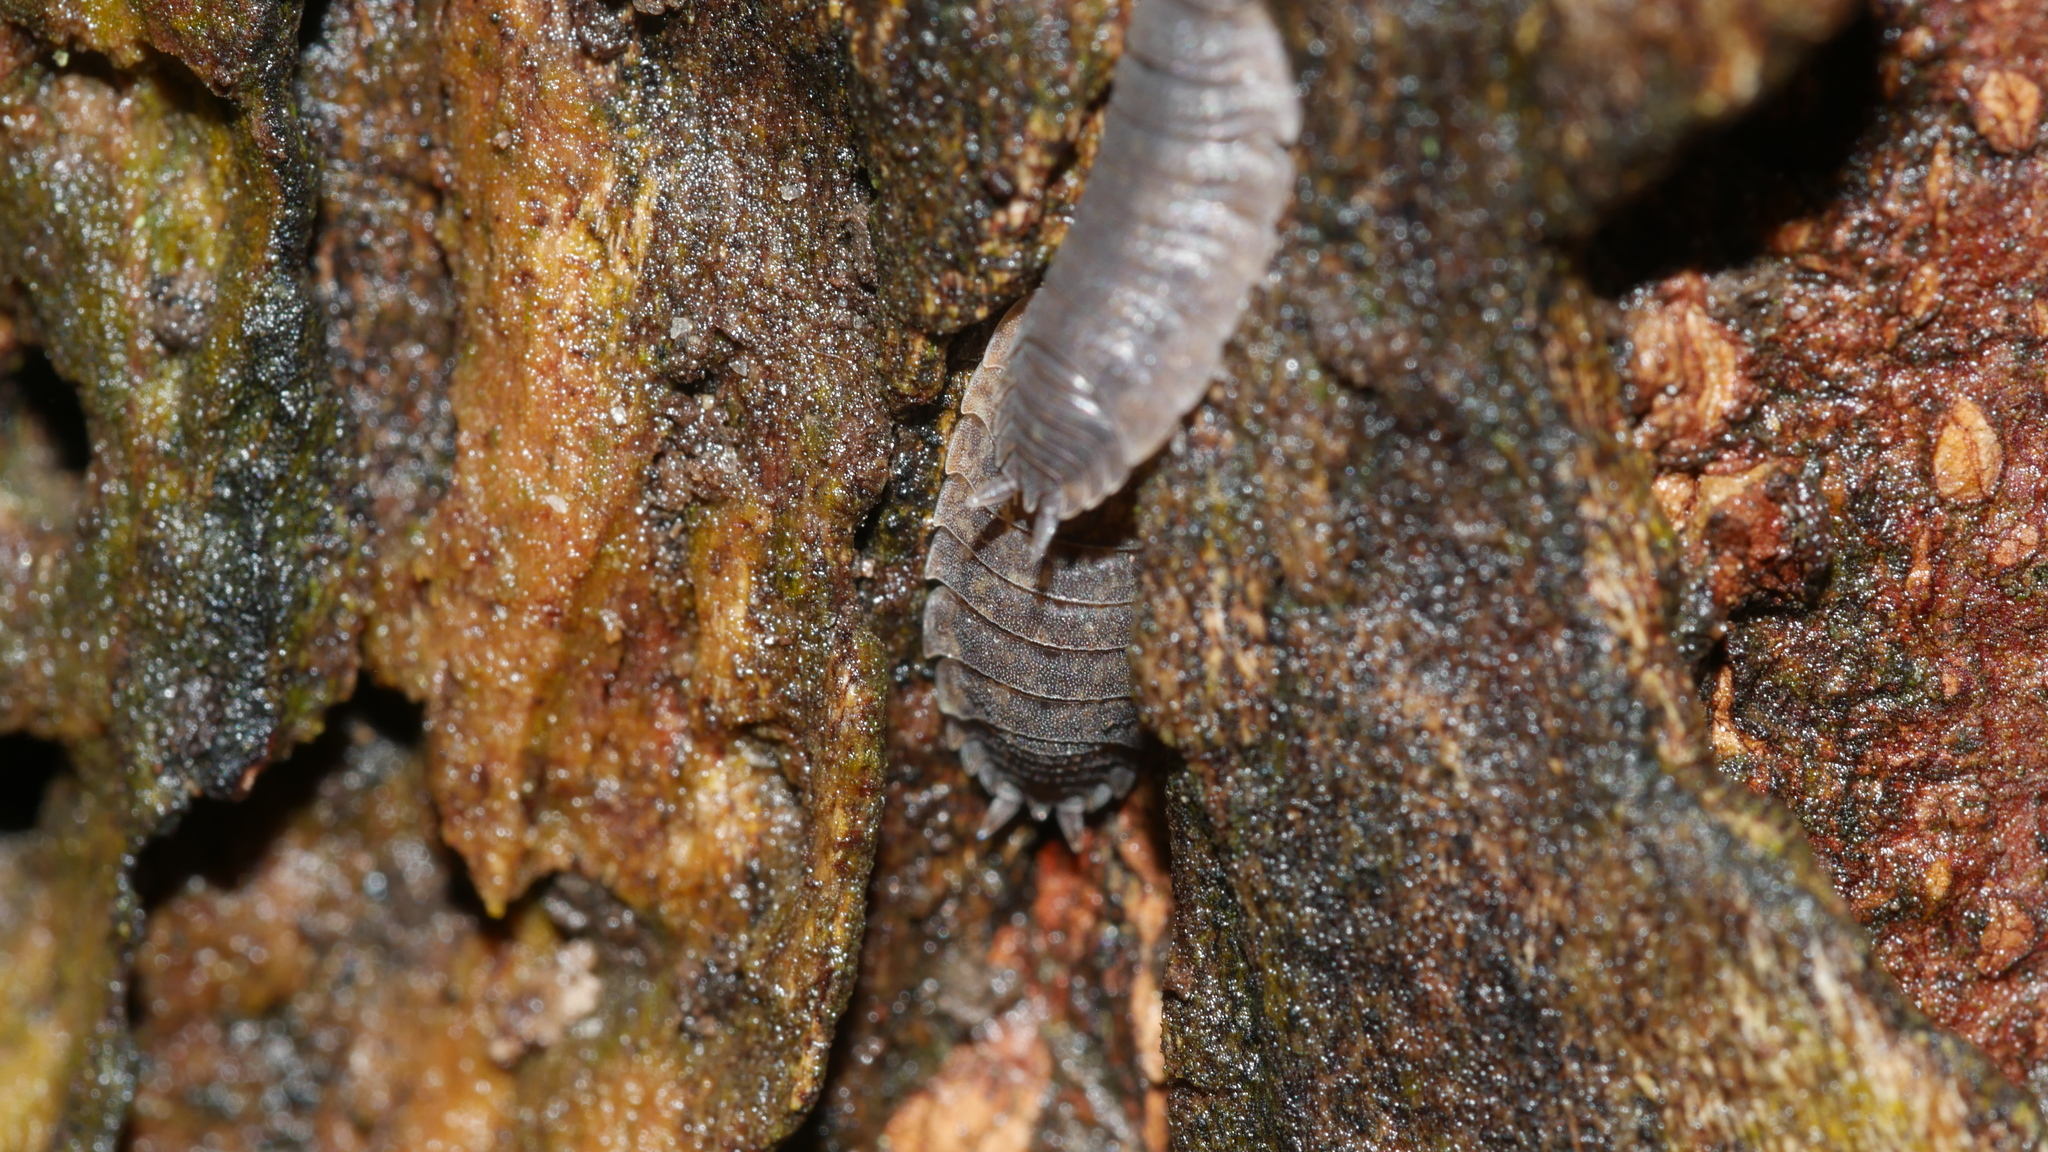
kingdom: Animalia
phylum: Arthropoda
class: Malacostraca
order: Isopoda
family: Porcellionidae
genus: Porcellio
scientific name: Porcellio scaber
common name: Common rough woodlouse
